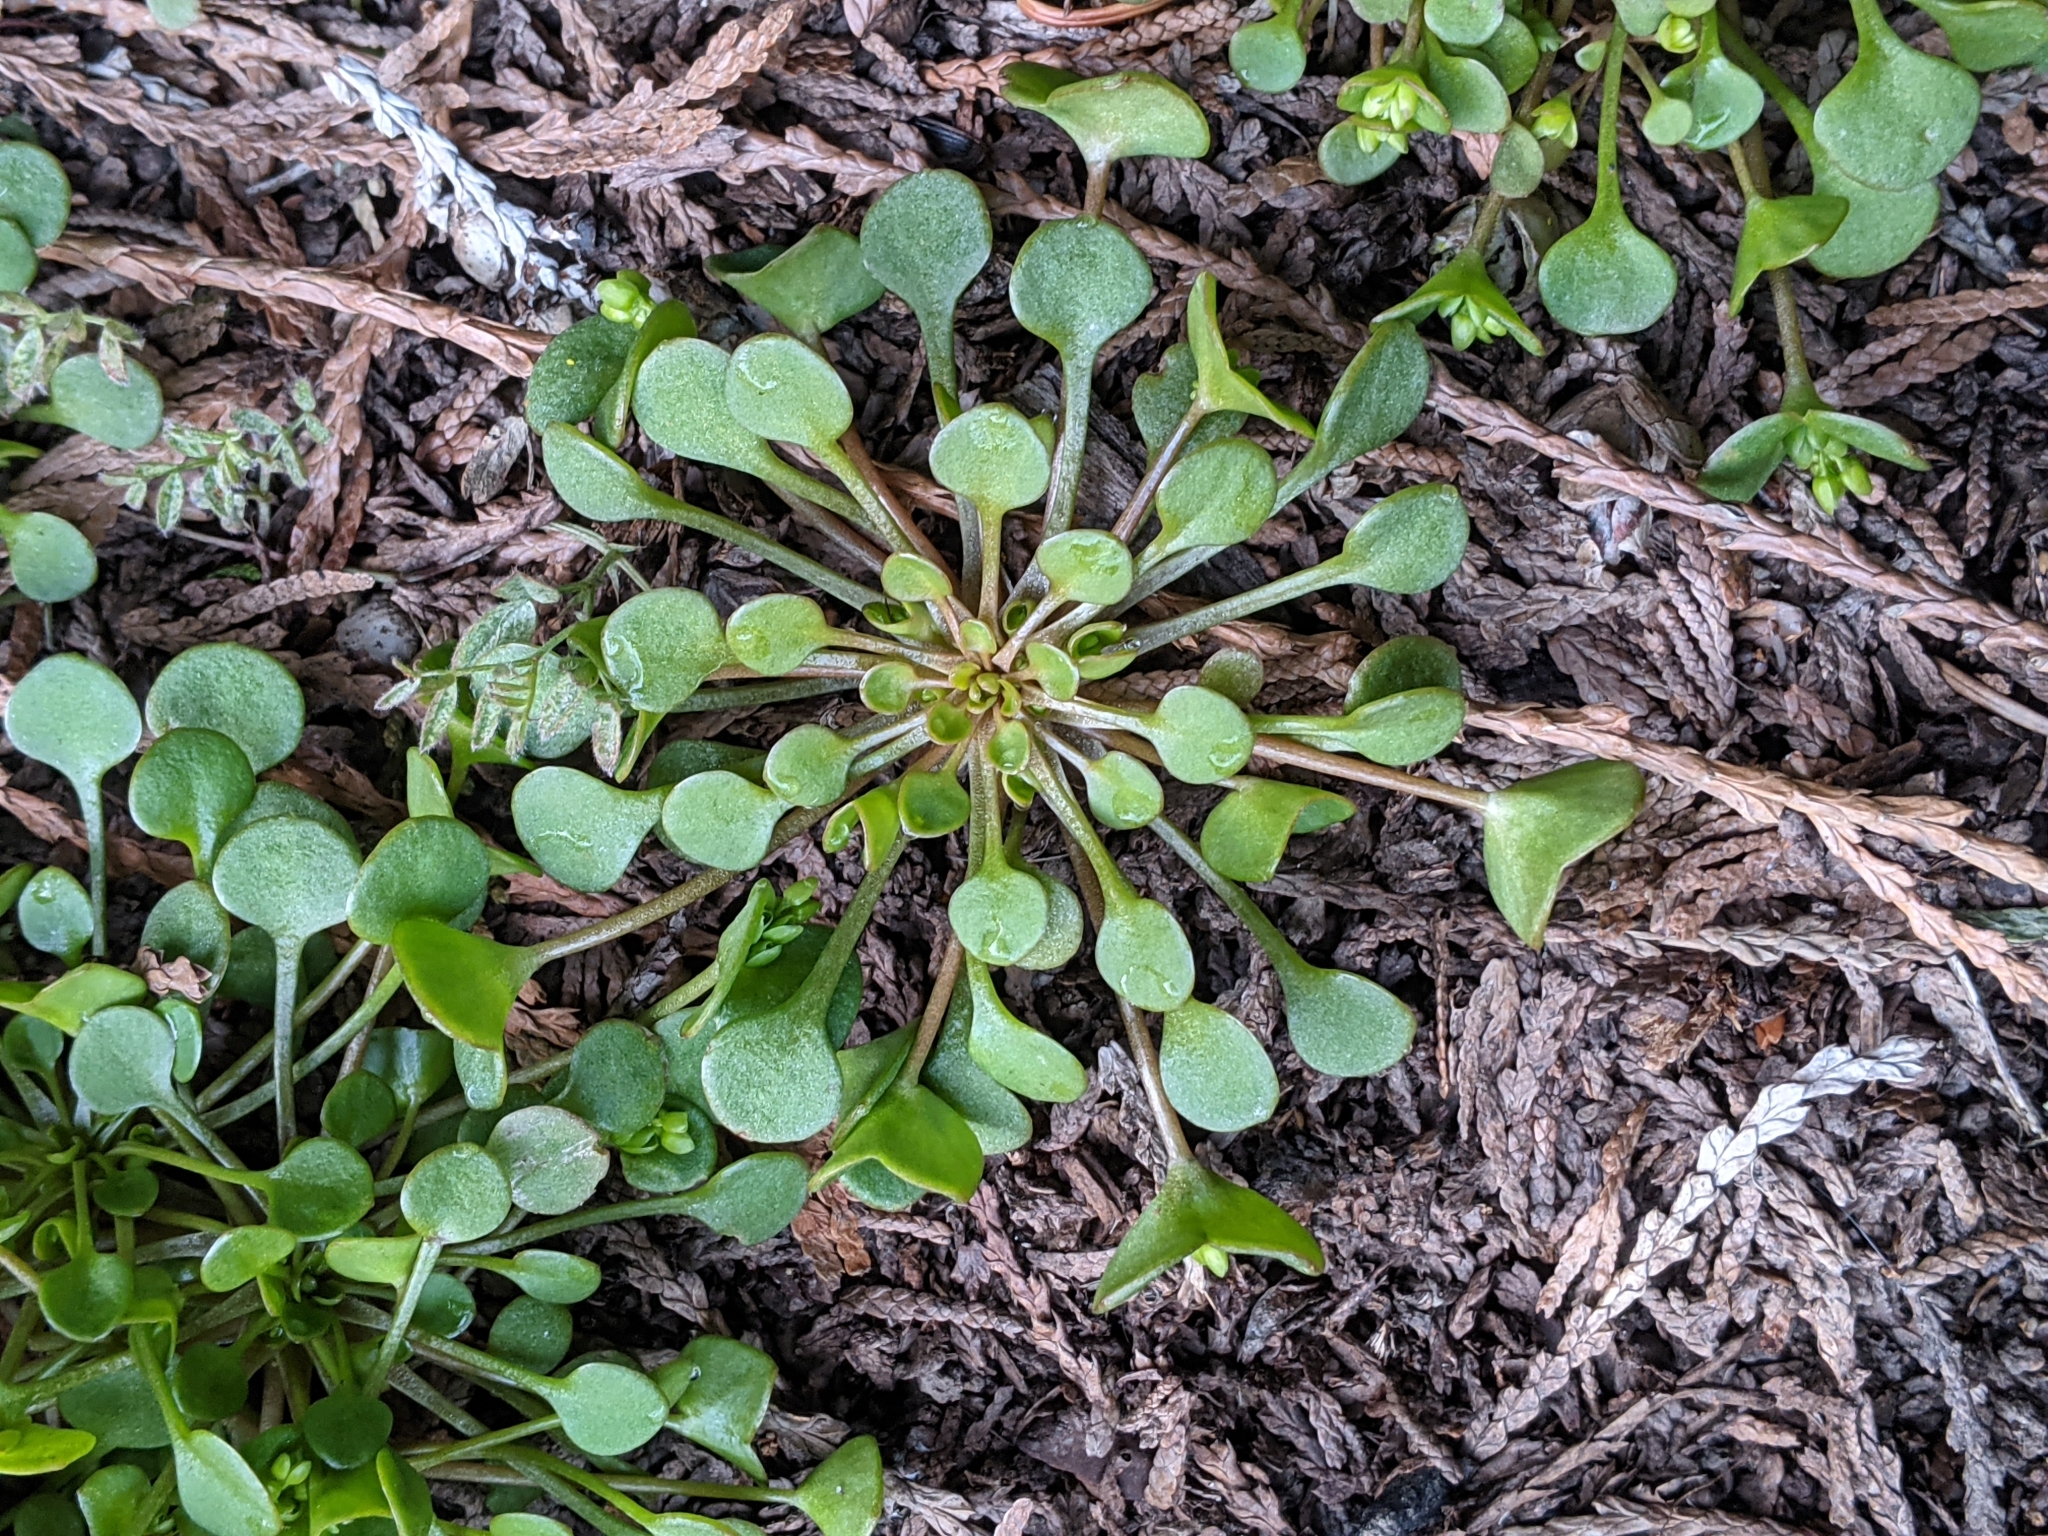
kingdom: Plantae
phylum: Tracheophyta
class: Magnoliopsida
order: Caryophyllales
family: Montiaceae
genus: Claytonia
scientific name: Claytonia rubra
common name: Erubescent miner's-lettuce
